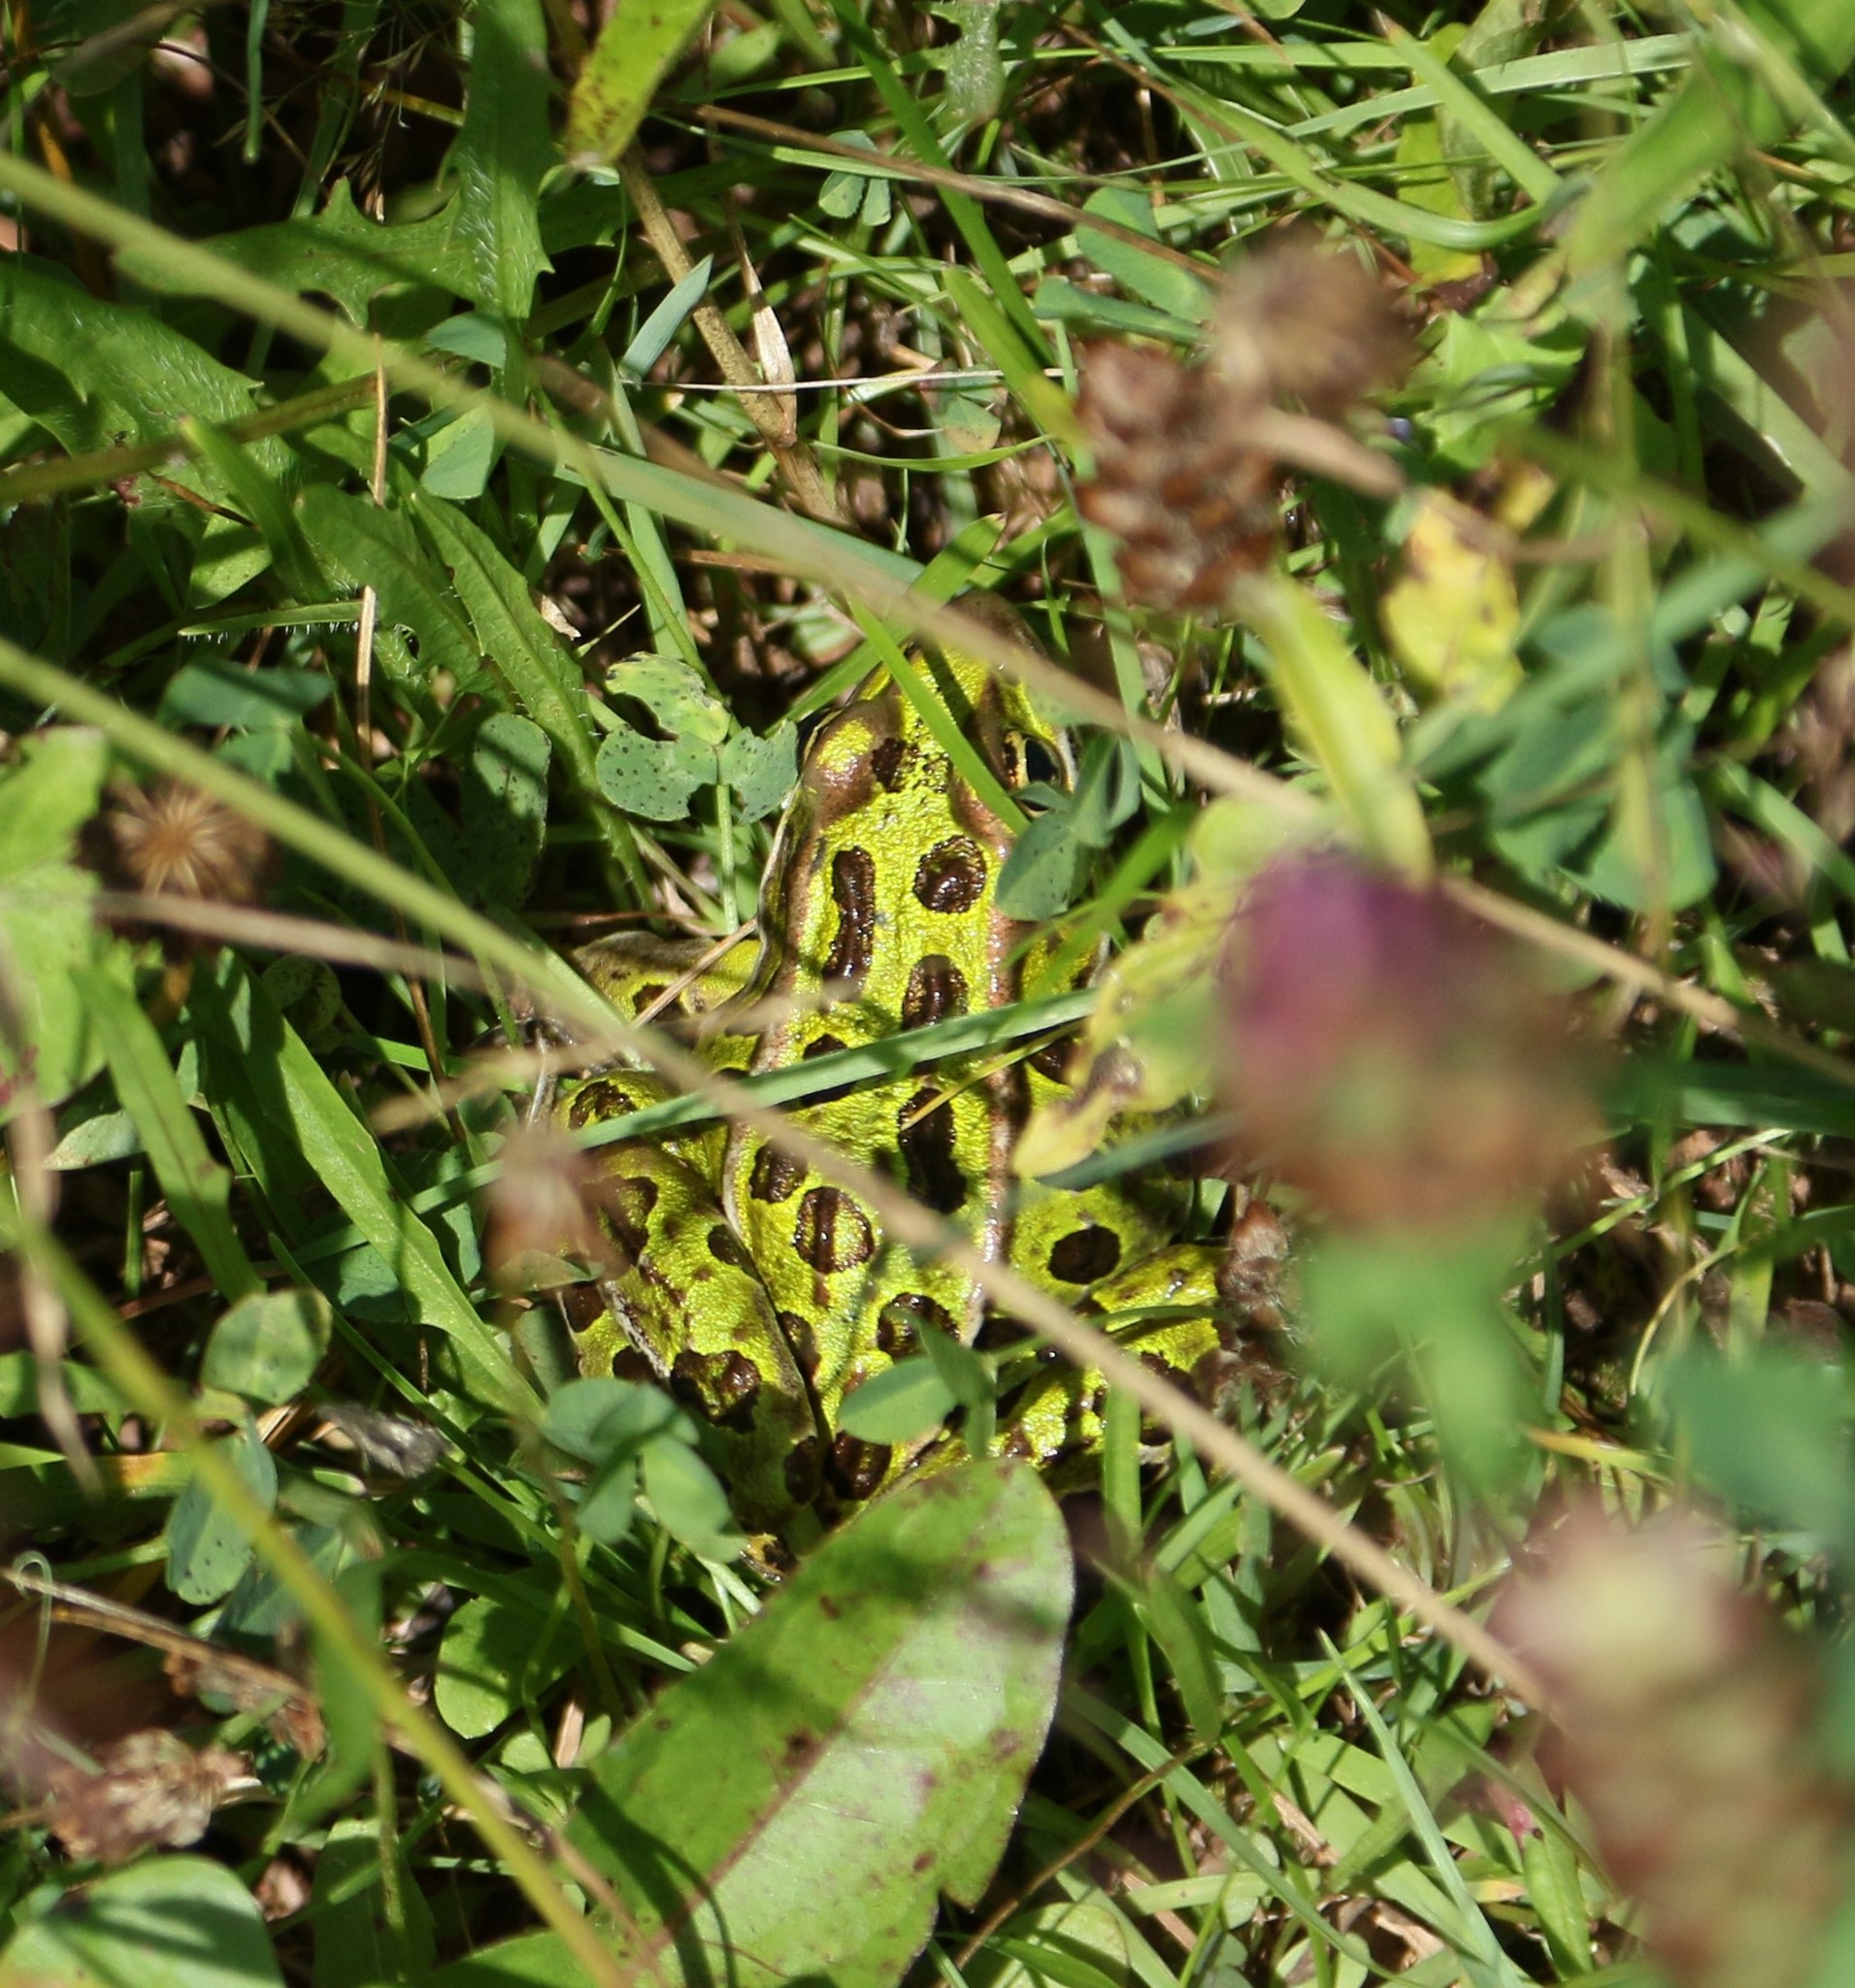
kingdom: Animalia
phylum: Chordata
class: Amphibia
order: Anura
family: Ranidae
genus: Lithobates
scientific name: Lithobates pipiens
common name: Northern leopard frog
